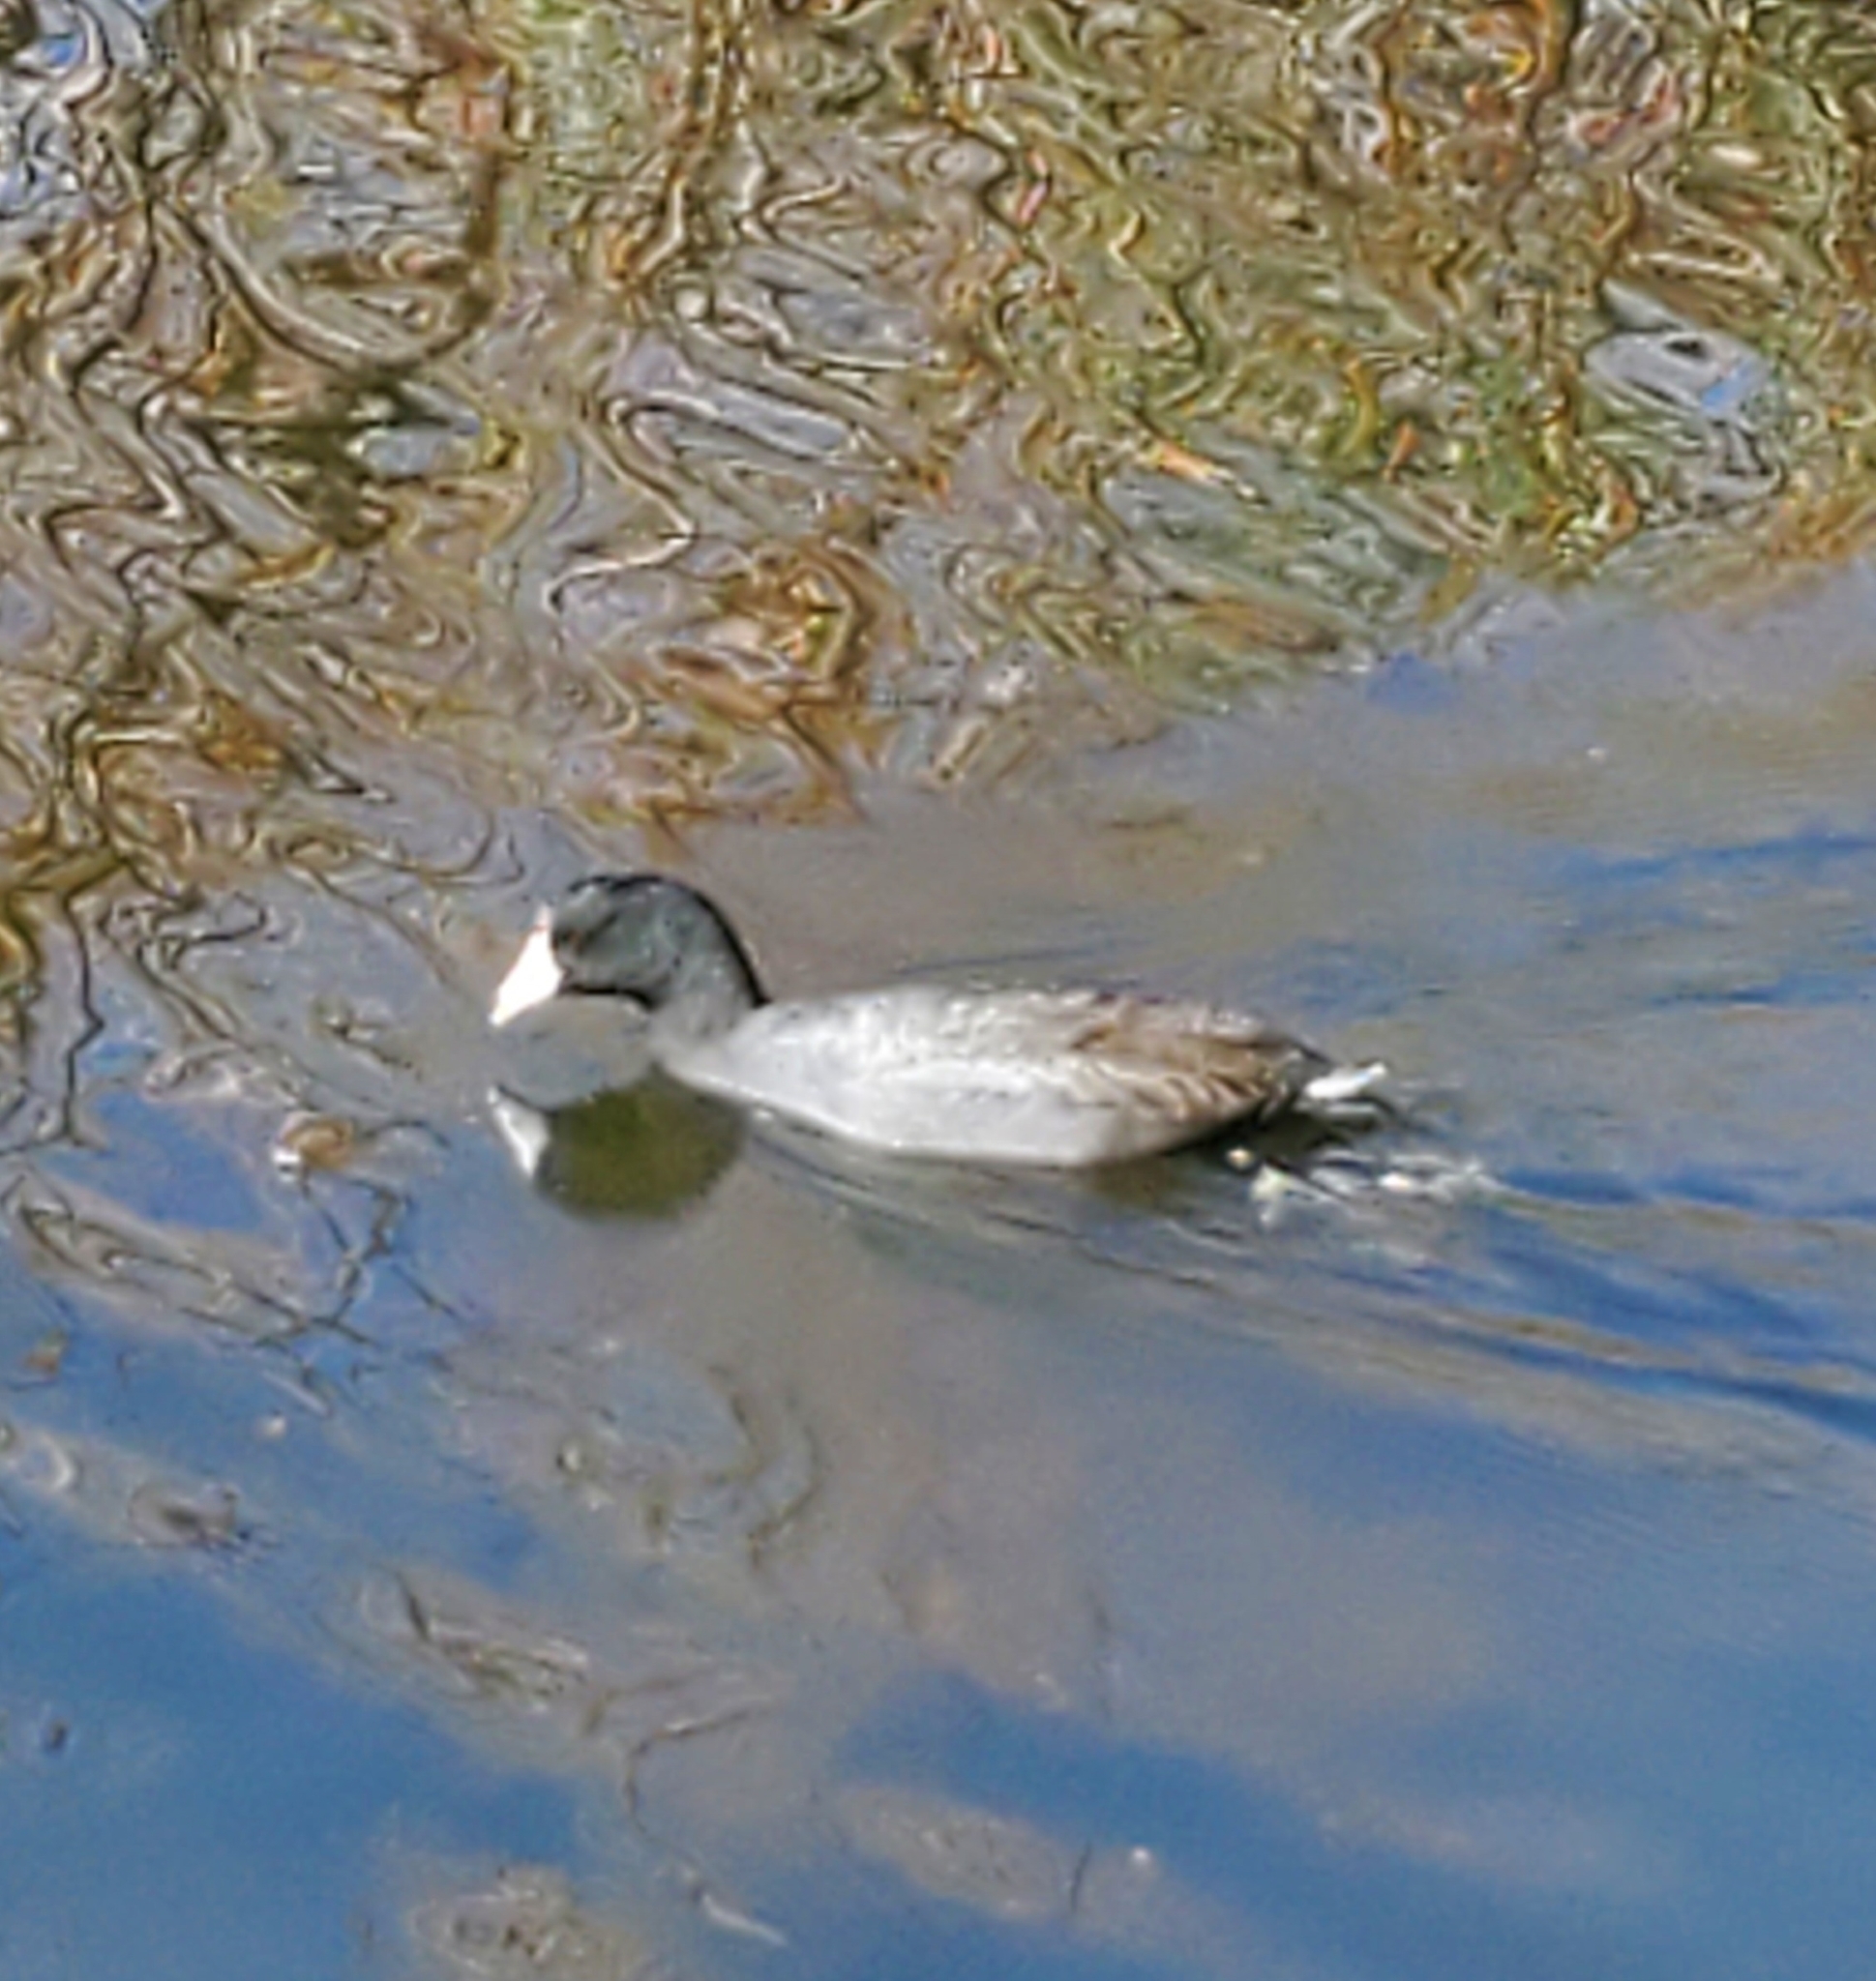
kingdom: Animalia
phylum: Chordata
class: Aves
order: Gruiformes
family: Rallidae
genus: Fulica
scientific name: Fulica americana
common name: American coot
